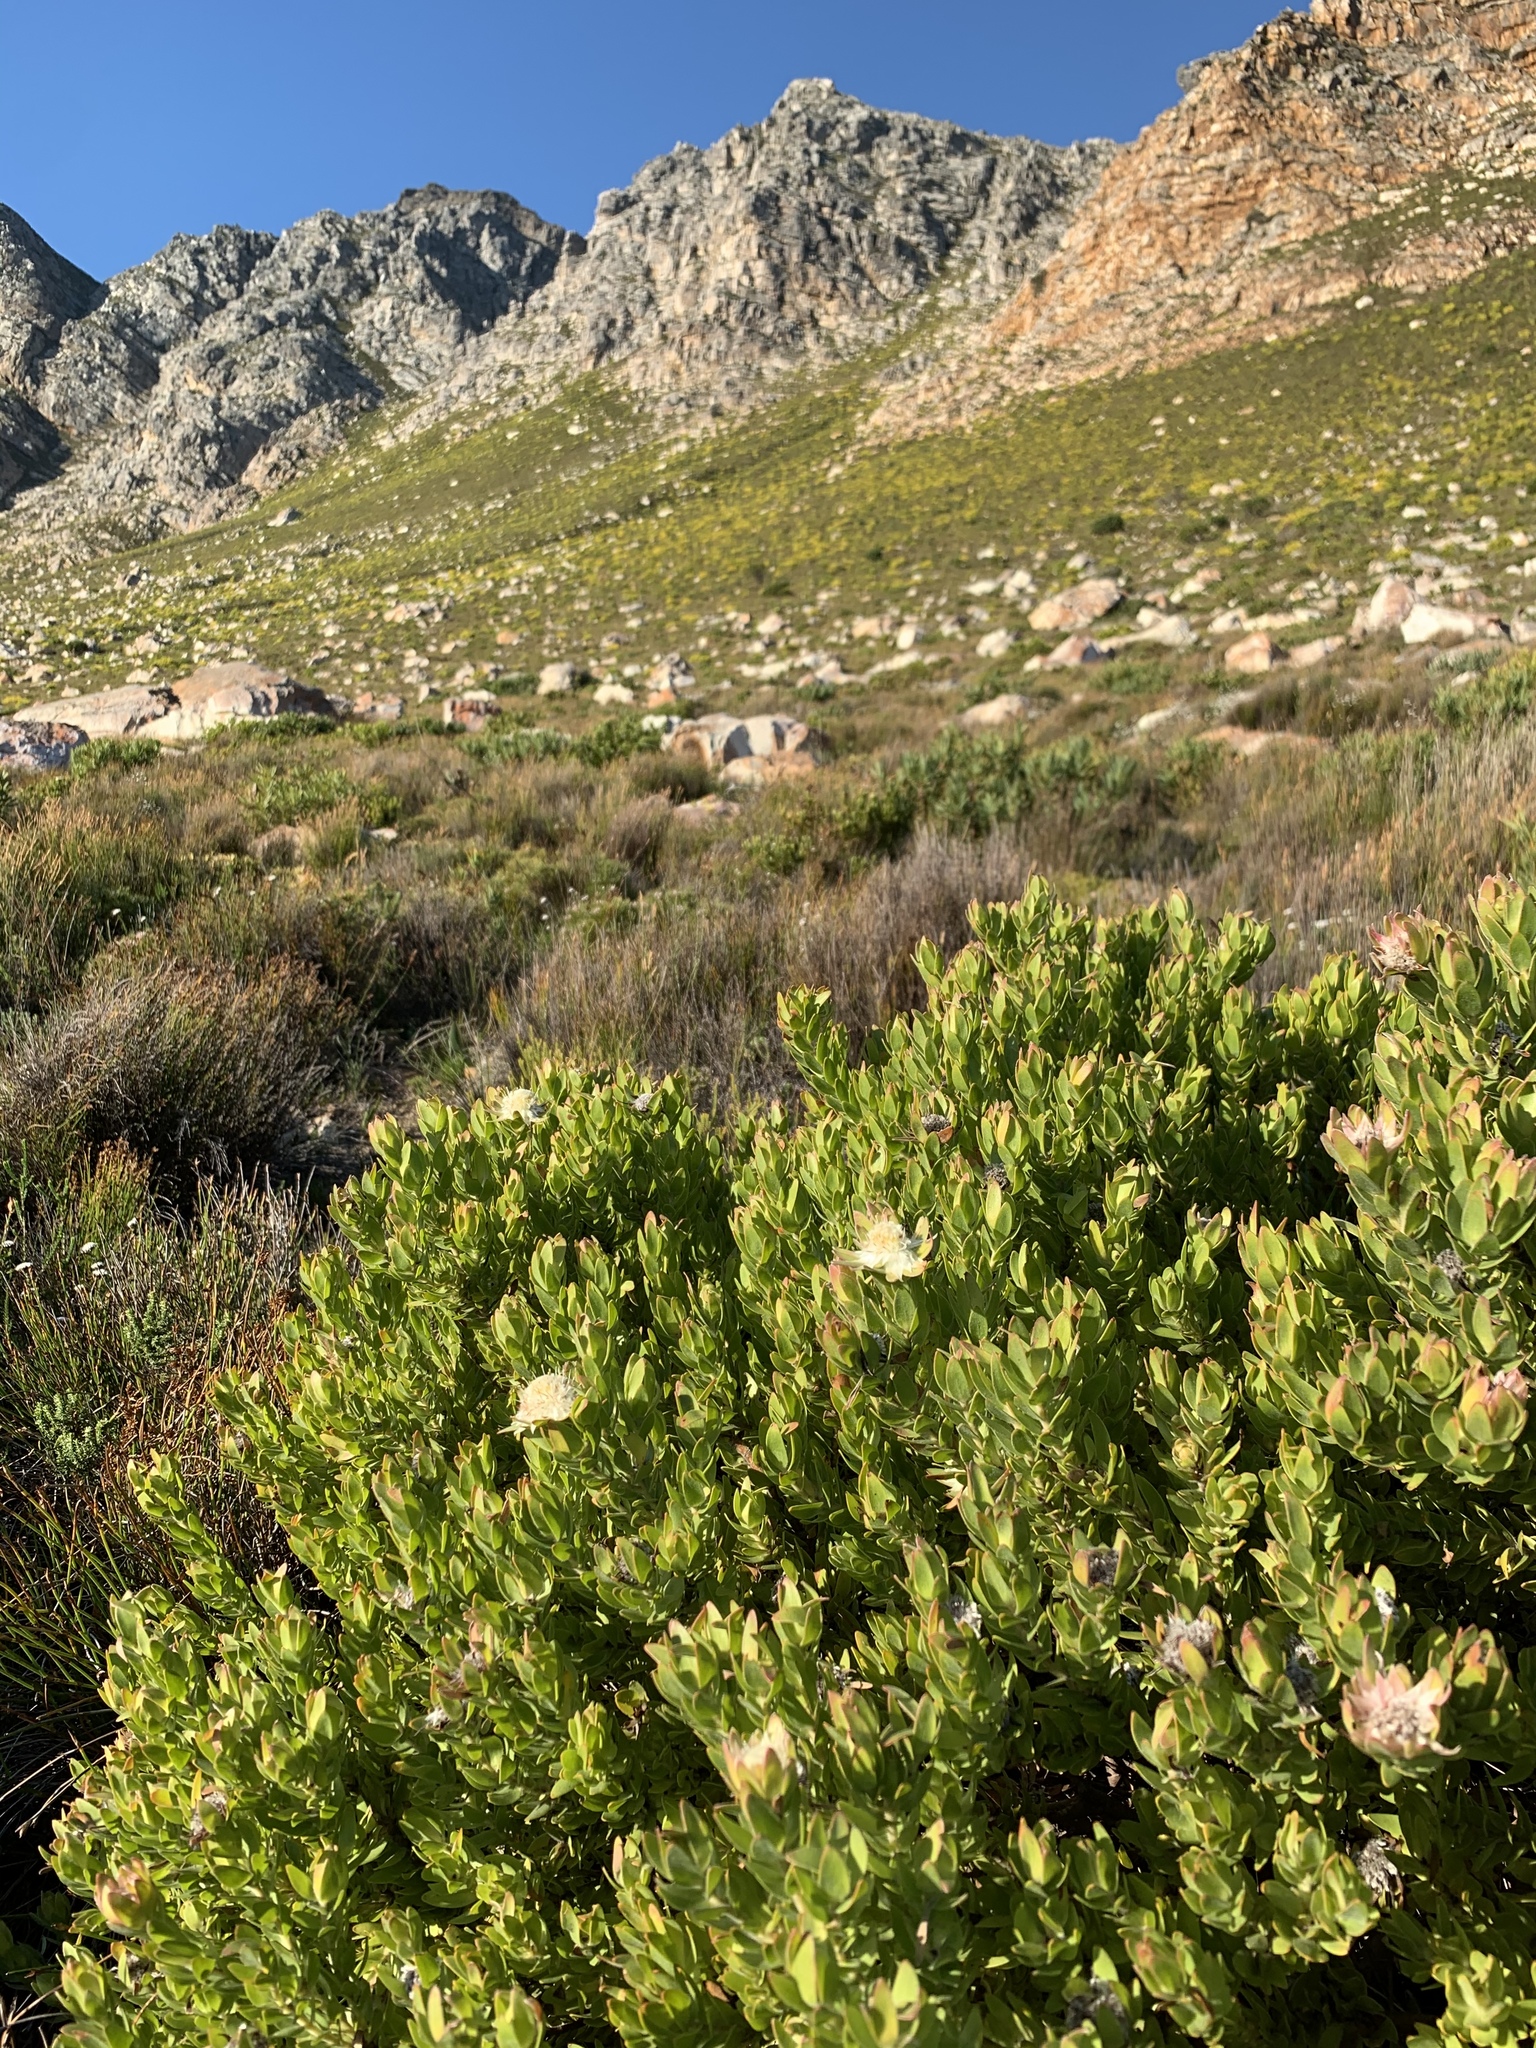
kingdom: Plantae
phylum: Tracheophyta
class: Magnoliopsida
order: Proteales
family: Proteaceae
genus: Diastella
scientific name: Diastella thymelaeoides
